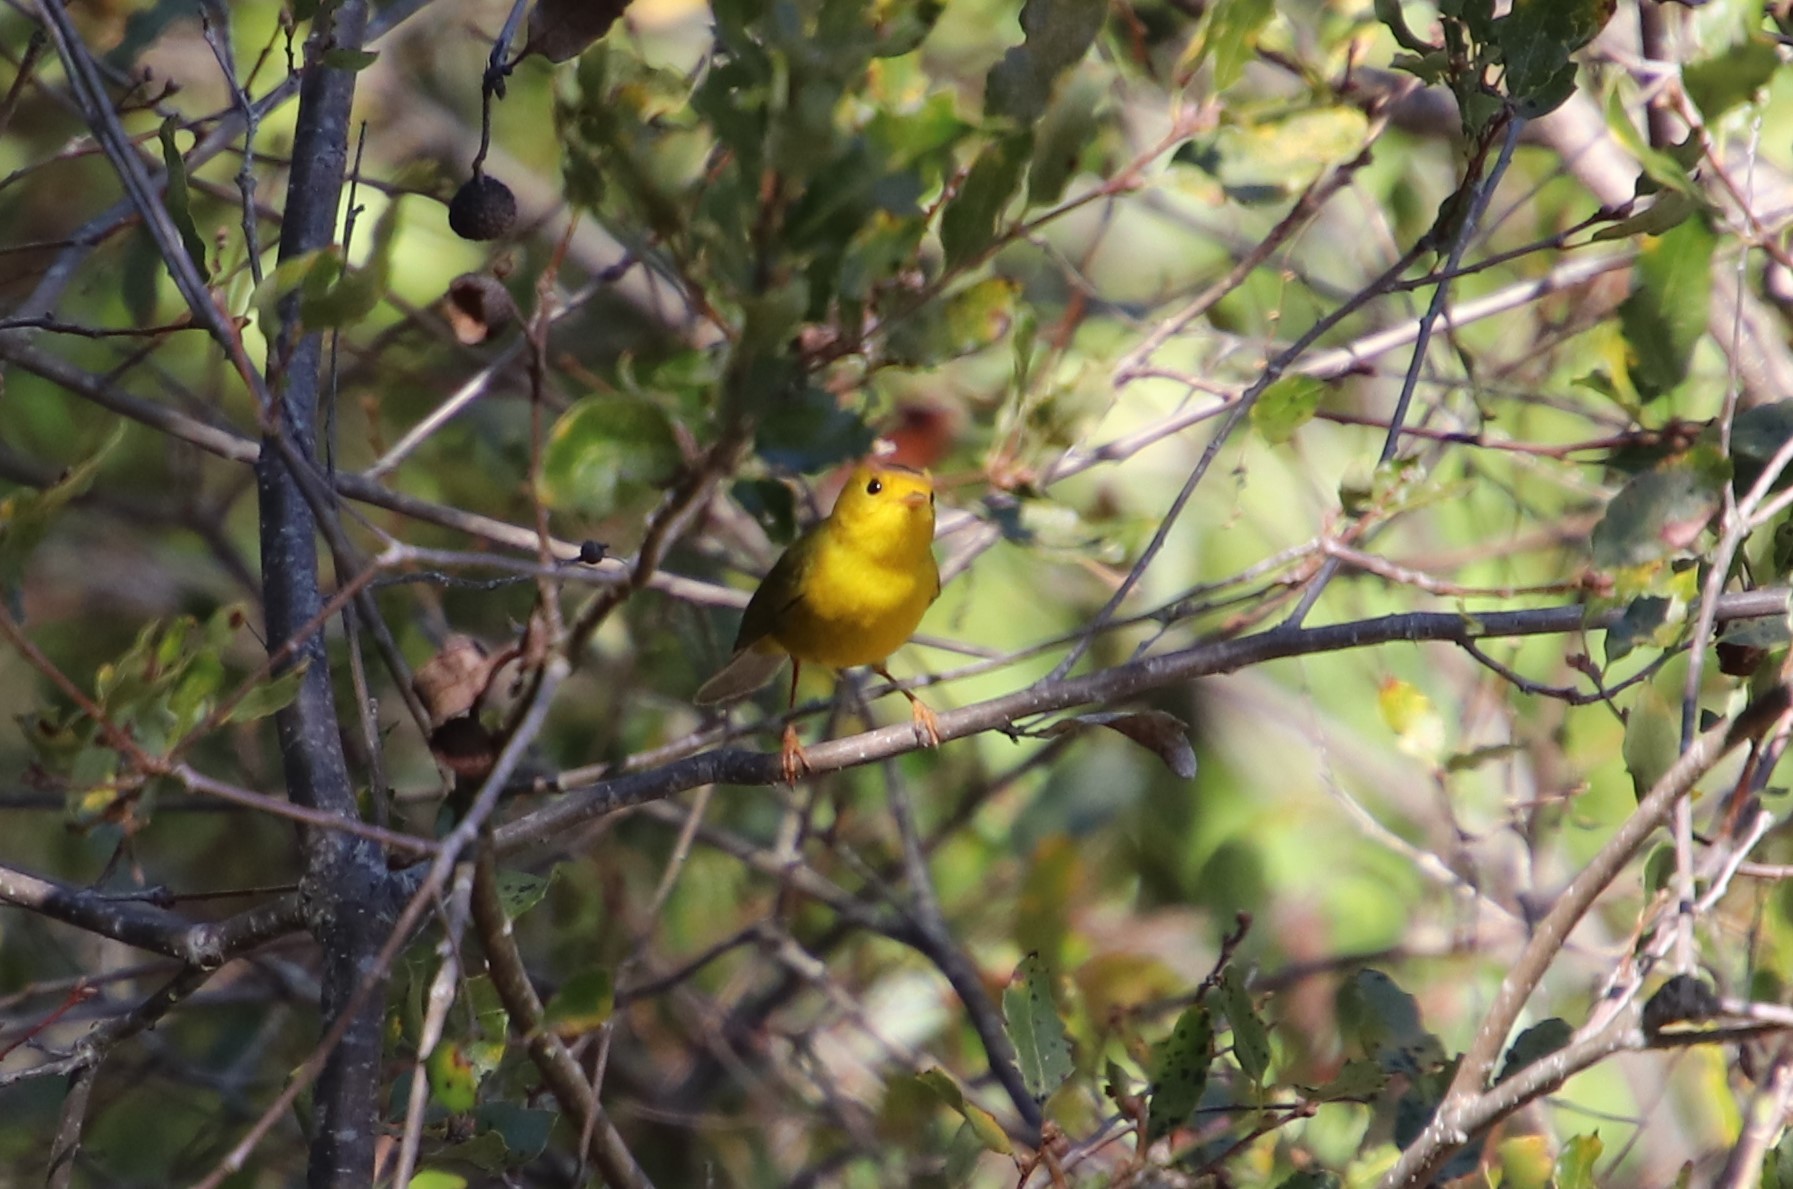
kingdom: Animalia
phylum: Chordata
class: Aves
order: Passeriformes
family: Parulidae
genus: Cardellina
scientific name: Cardellina pusilla
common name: Wilson's warbler
